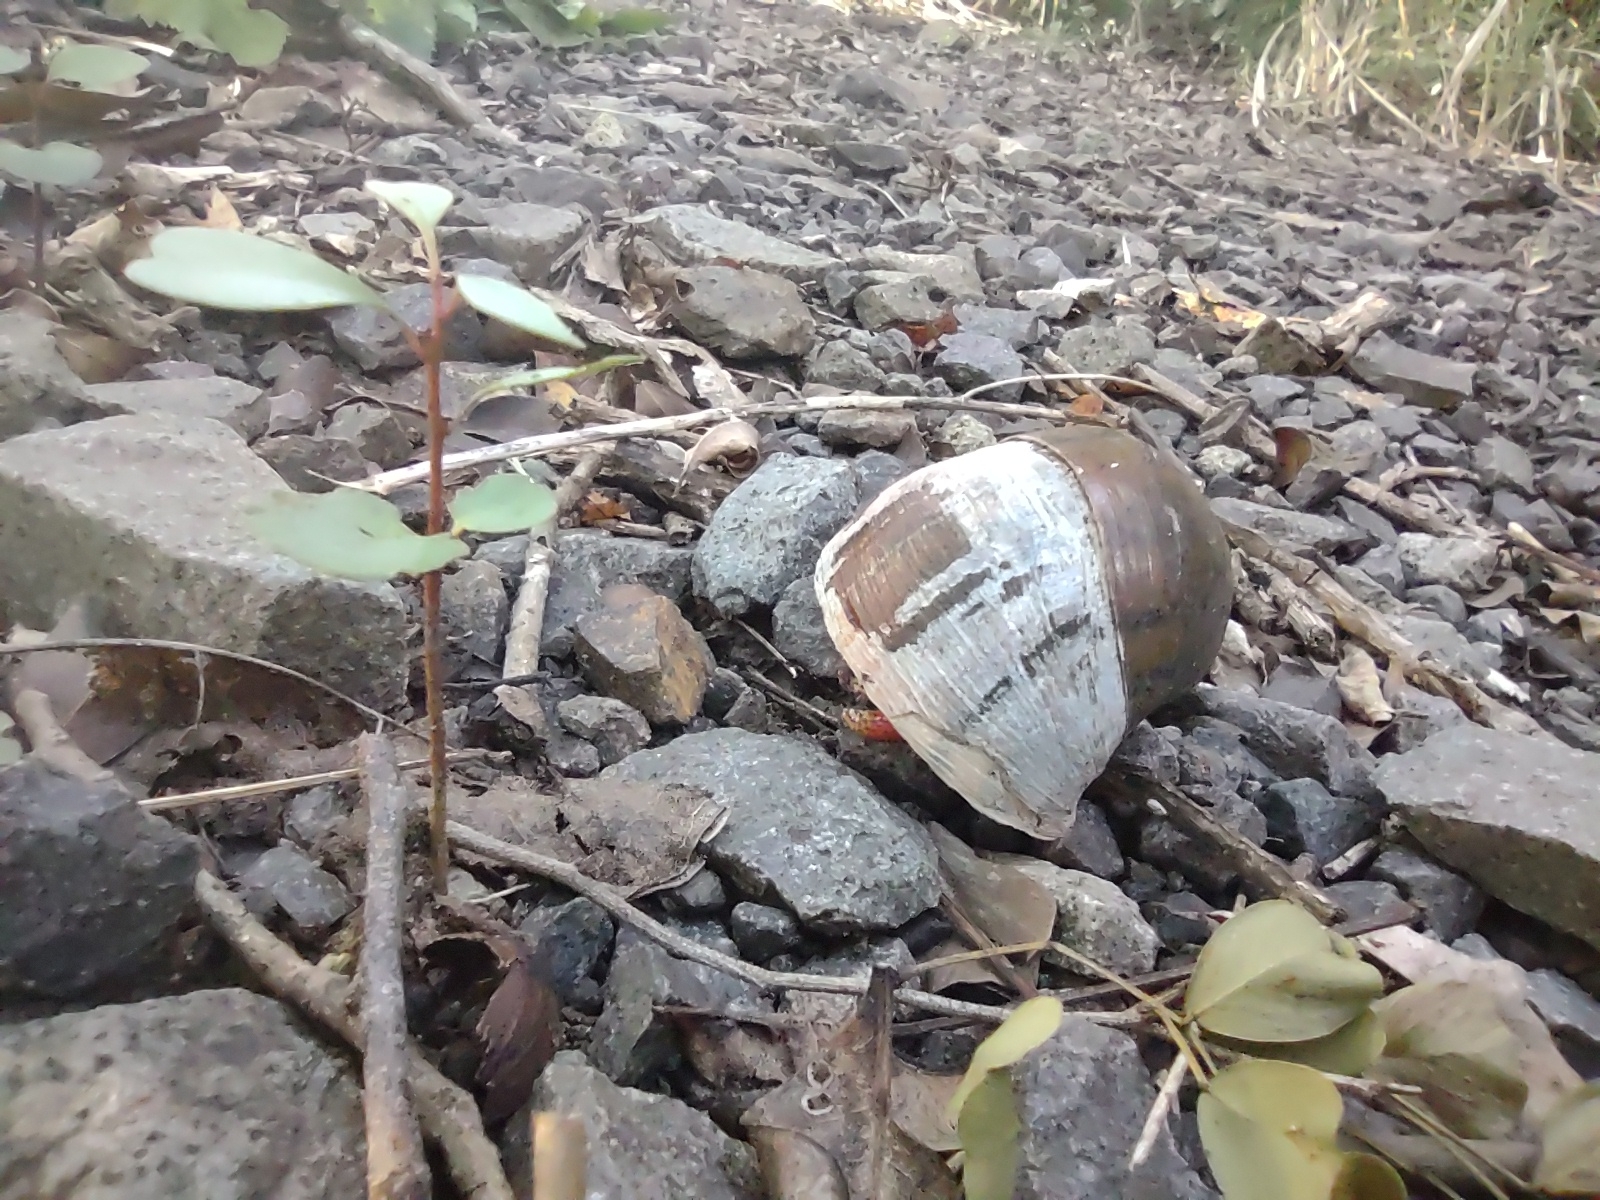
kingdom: Animalia
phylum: Arthropoda
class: Malacostraca
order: Decapoda
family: Coenobitidae
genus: Coenobita
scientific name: Coenobita clypeatus
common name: Caribbean hermit crab
